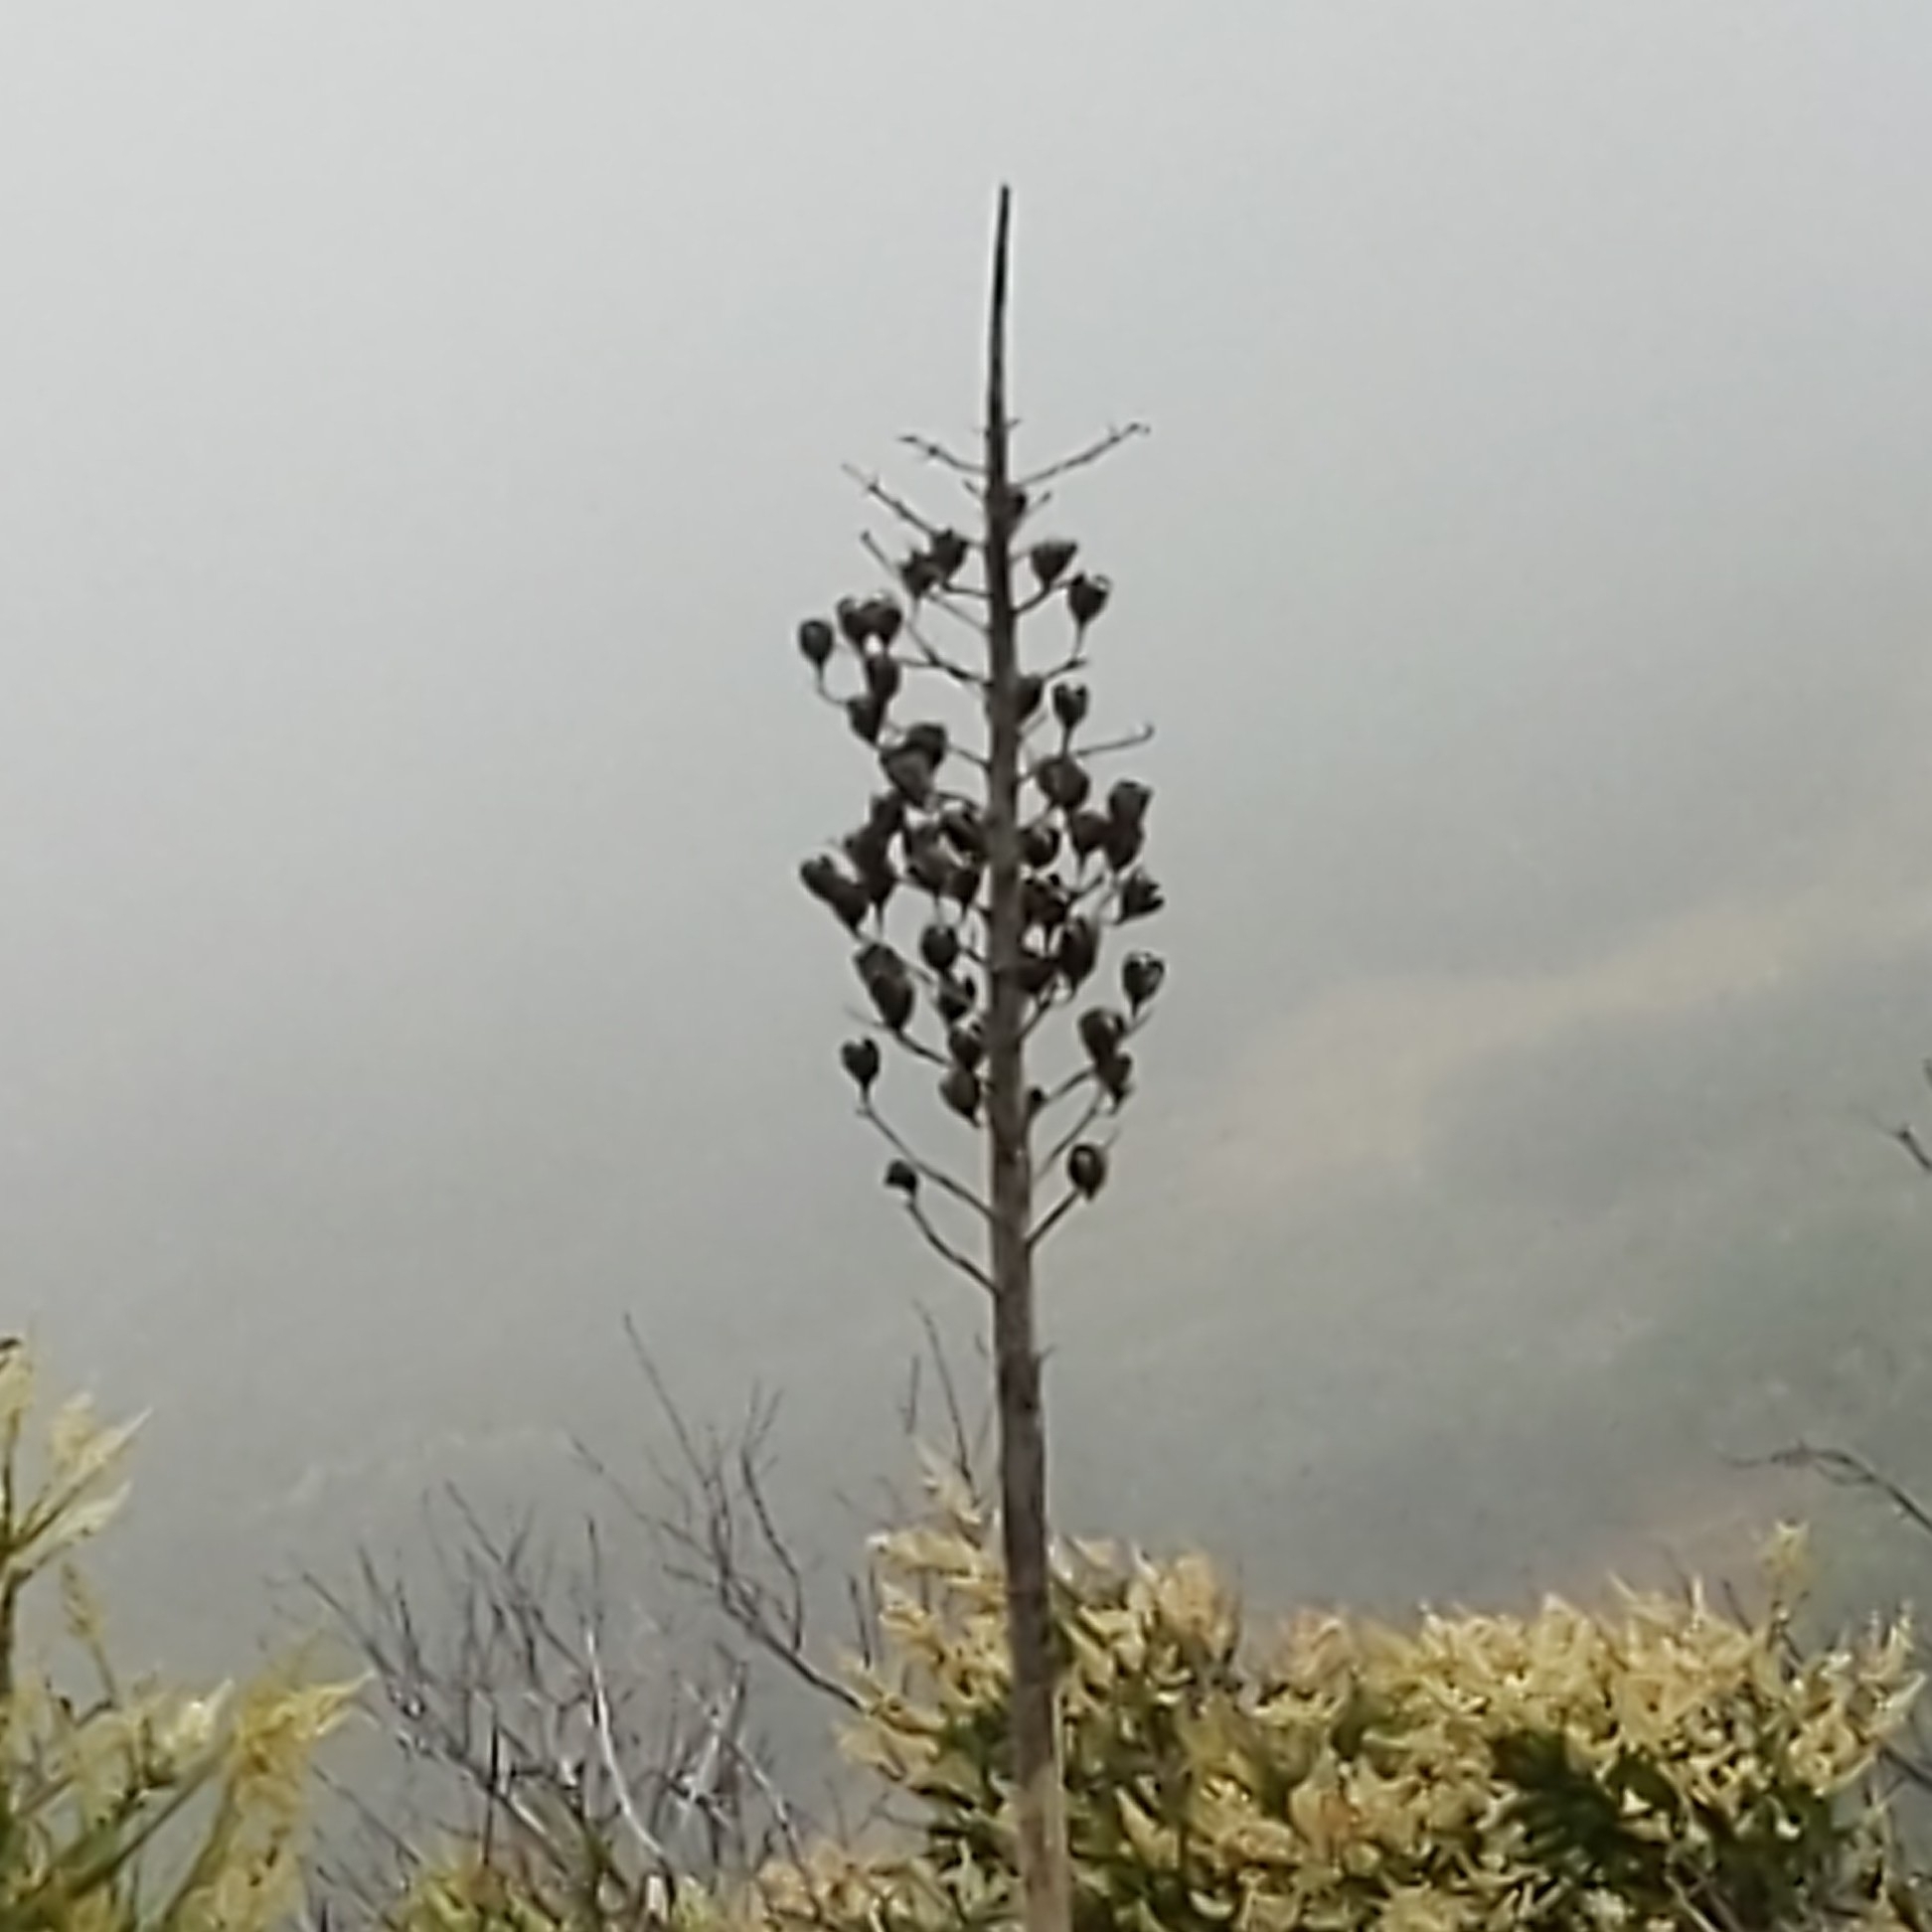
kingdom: Plantae
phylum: Tracheophyta
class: Liliopsida
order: Asparagales
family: Asparagaceae
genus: Hesperoyucca
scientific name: Hesperoyucca whipplei
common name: Our lord's-candle
